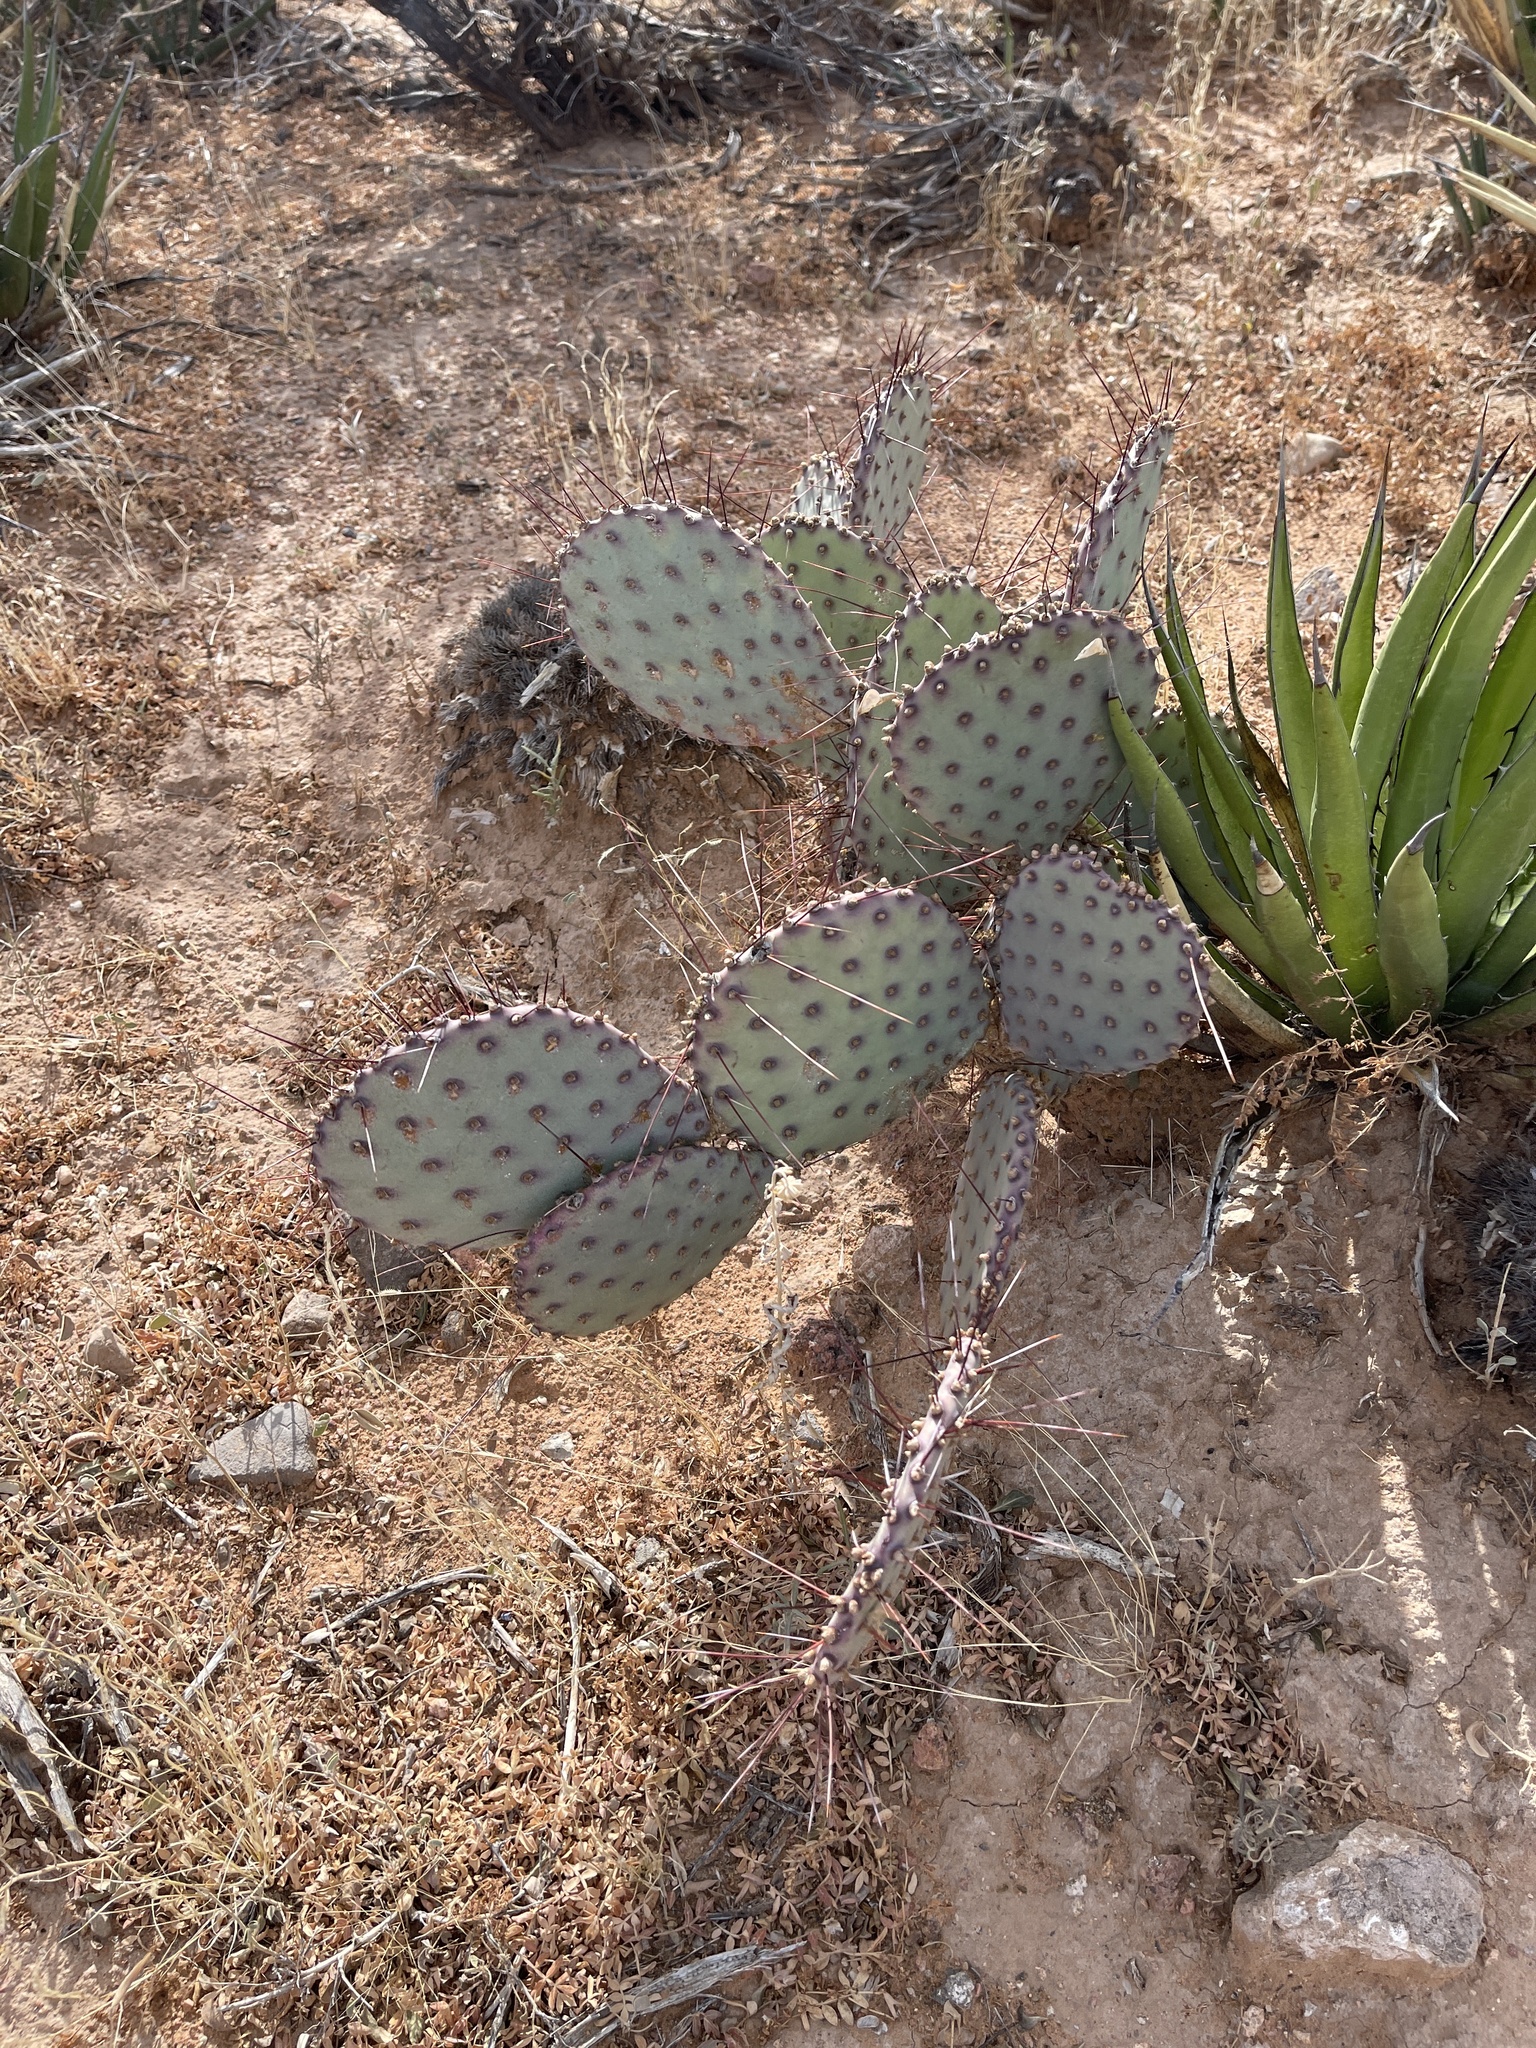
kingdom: Plantae
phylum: Tracheophyta
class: Magnoliopsida
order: Caryophyllales
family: Cactaceae
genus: Opuntia
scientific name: Opuntia macrocentra
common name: Purple prickly-pear
